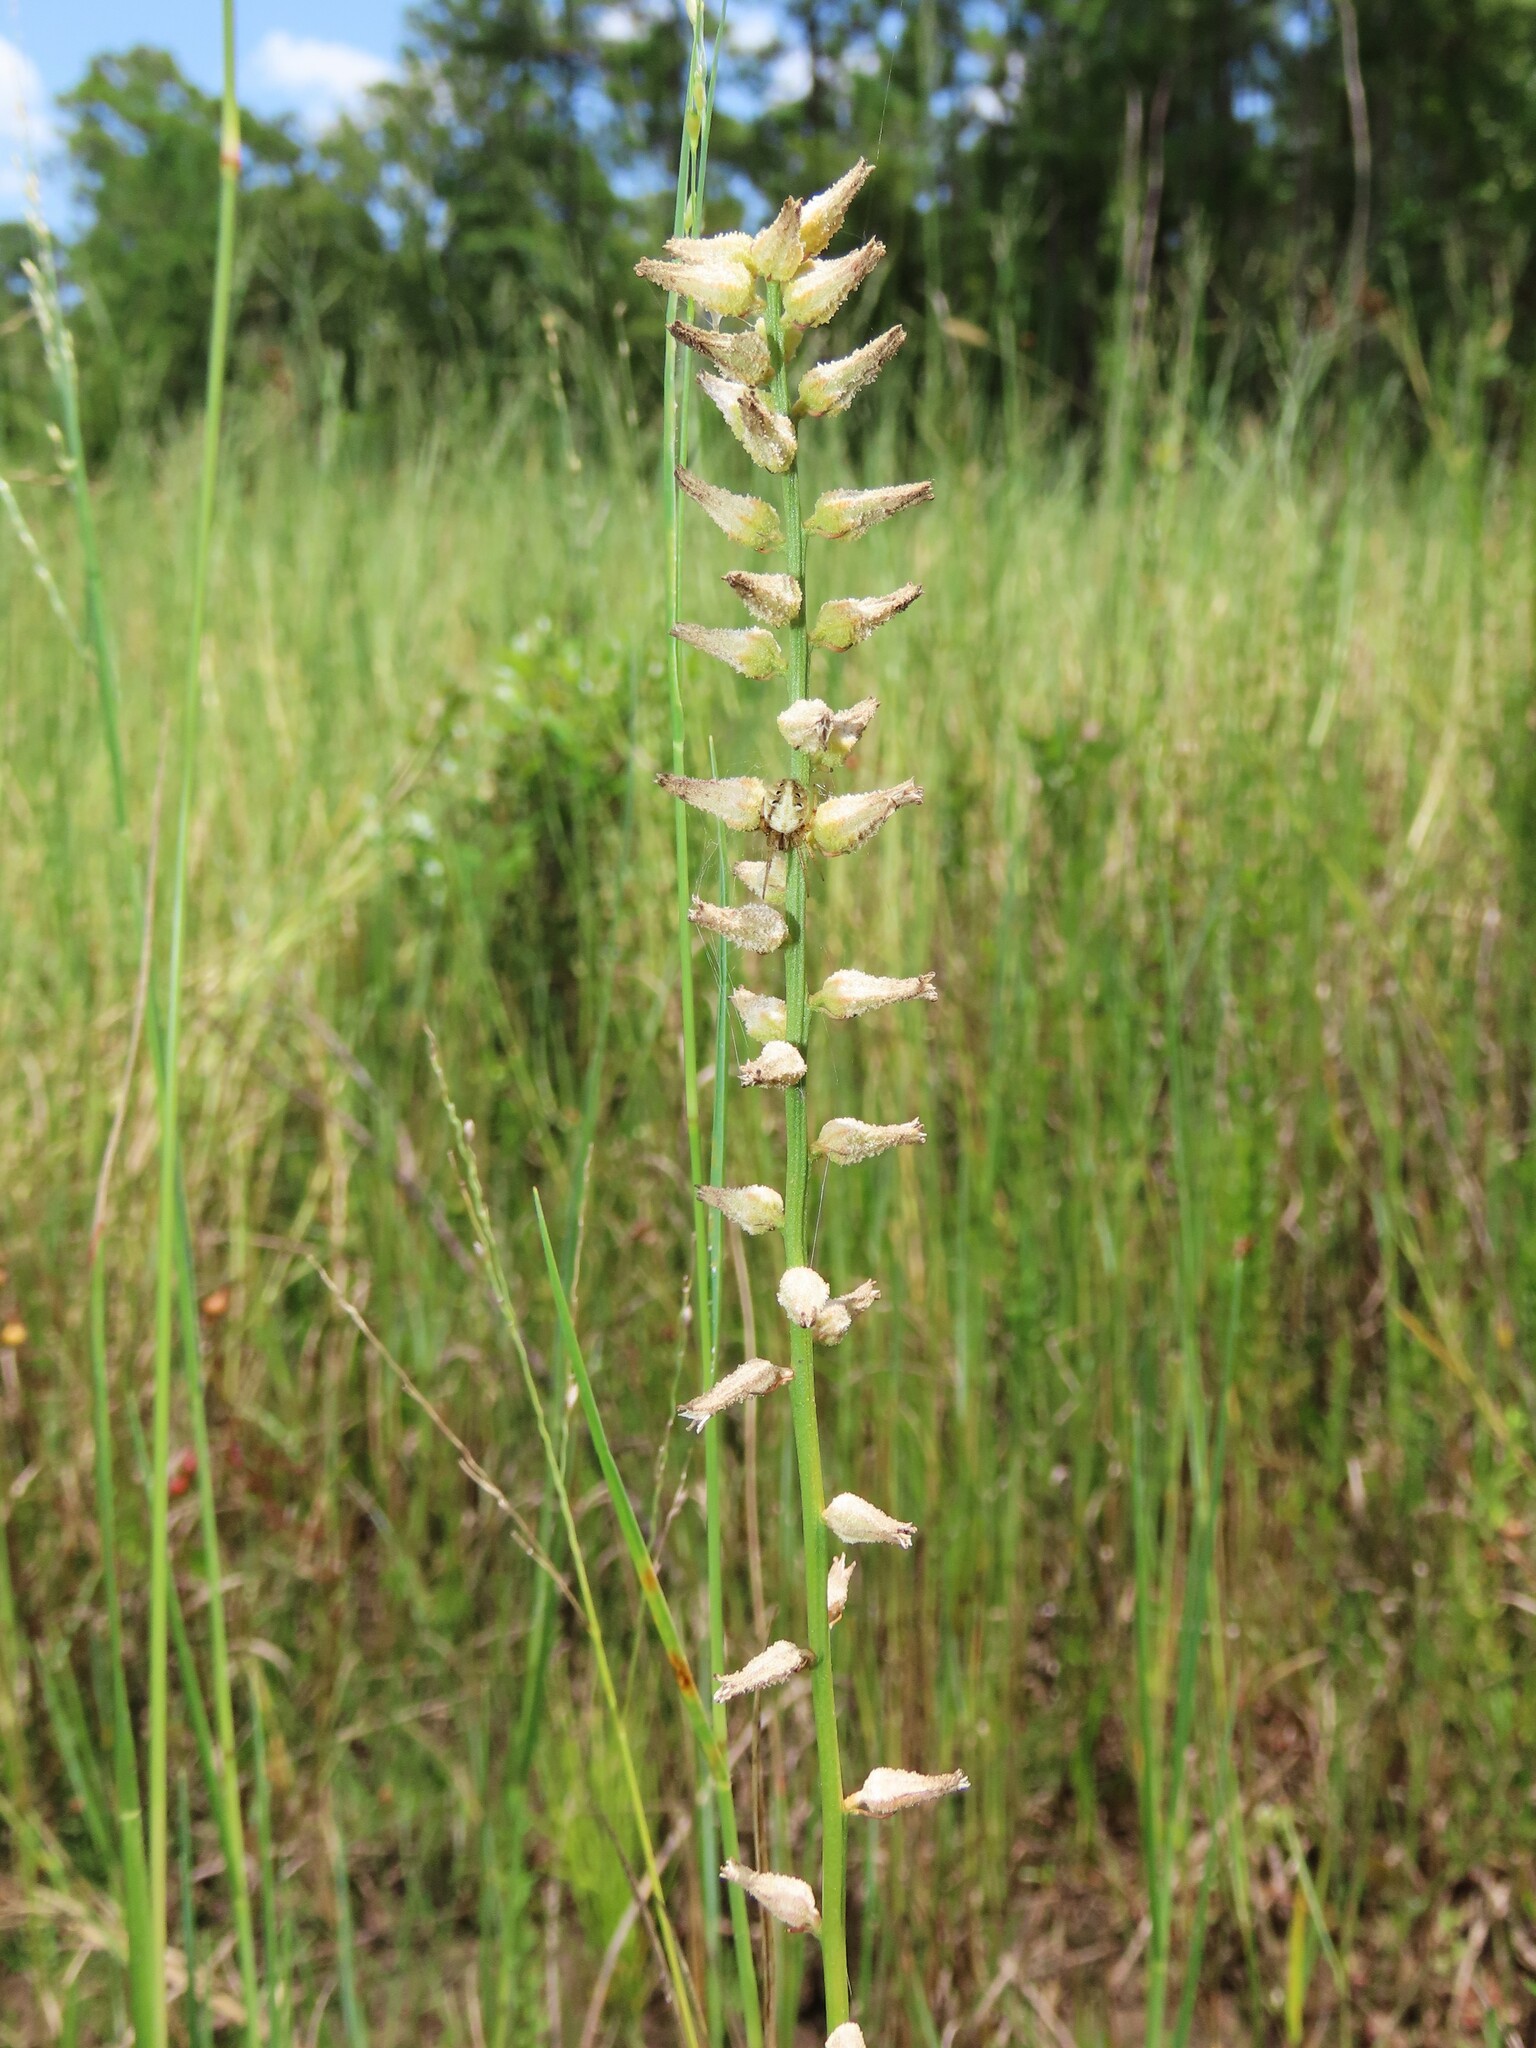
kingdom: Plantae
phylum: Tracheophyta
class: Liliopsida
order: Dioscoreales
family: Nartheciaceae
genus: Aletris
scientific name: Aletris lutea
